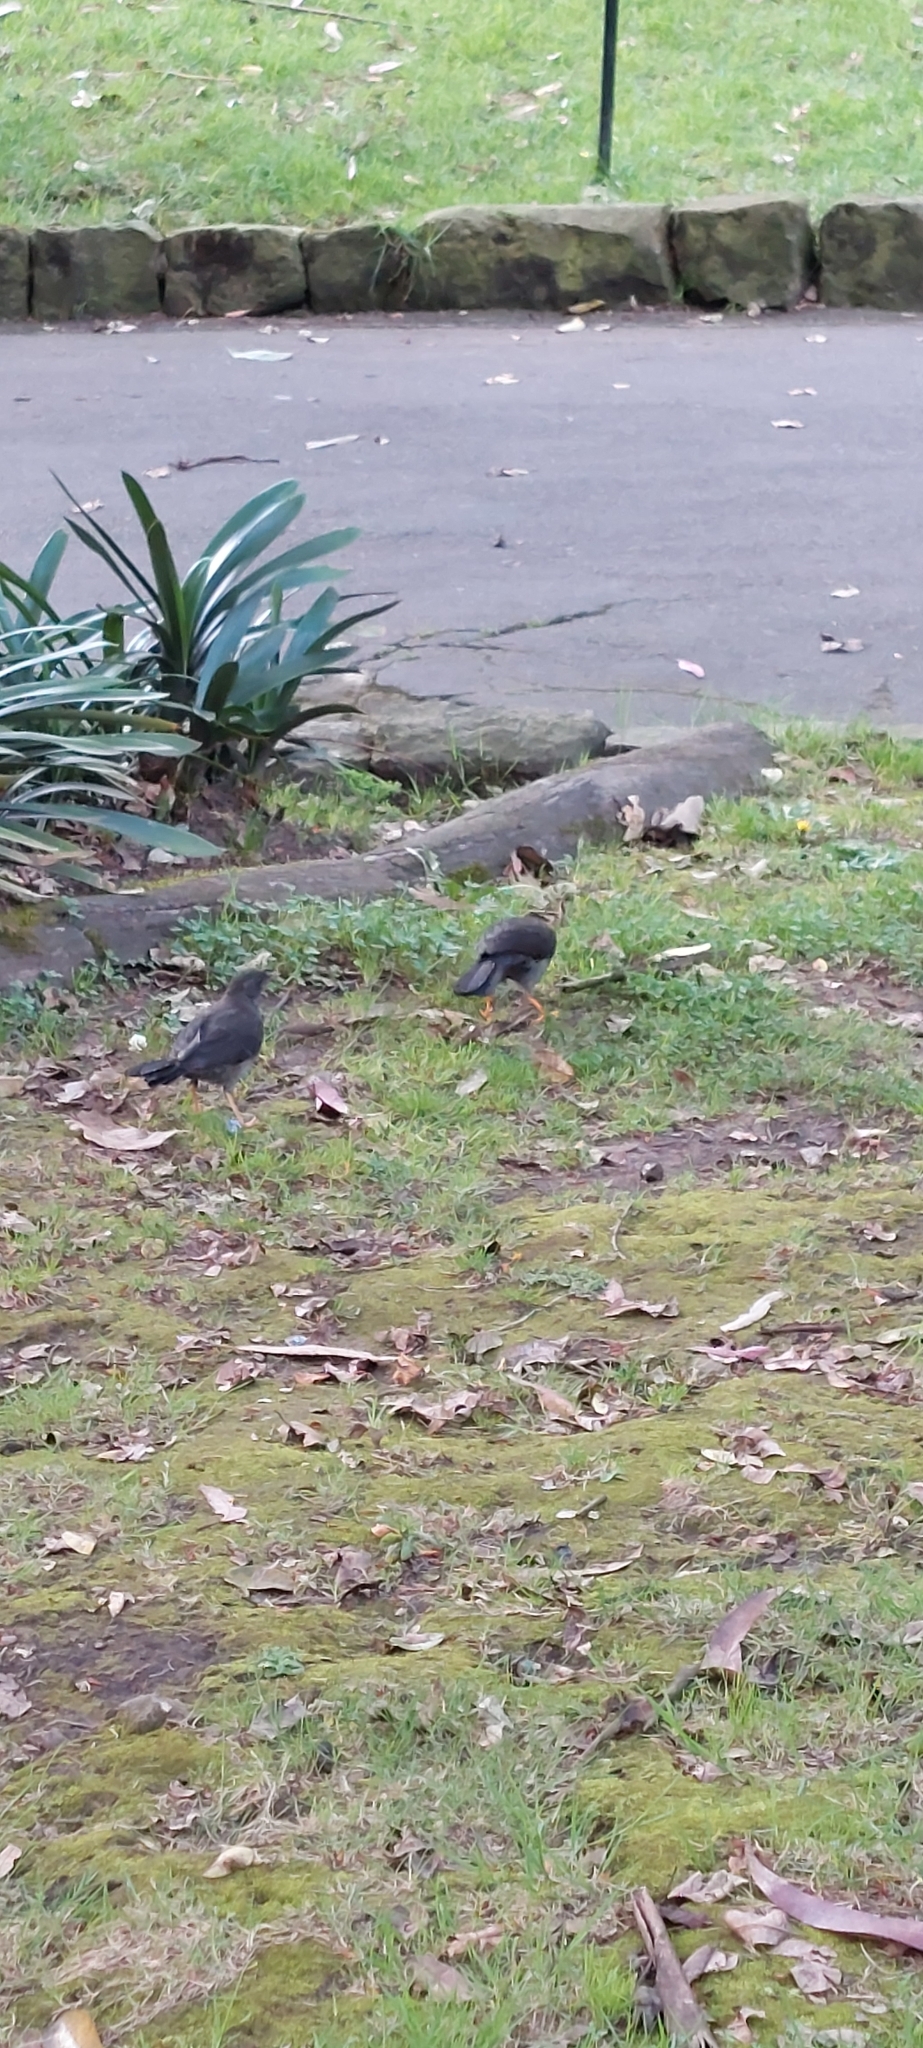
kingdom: Animalia
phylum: Chordata
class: Aves
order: Passeriformes
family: Turdidae
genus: Turdus
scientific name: Turdus fuscater
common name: Great thrush
